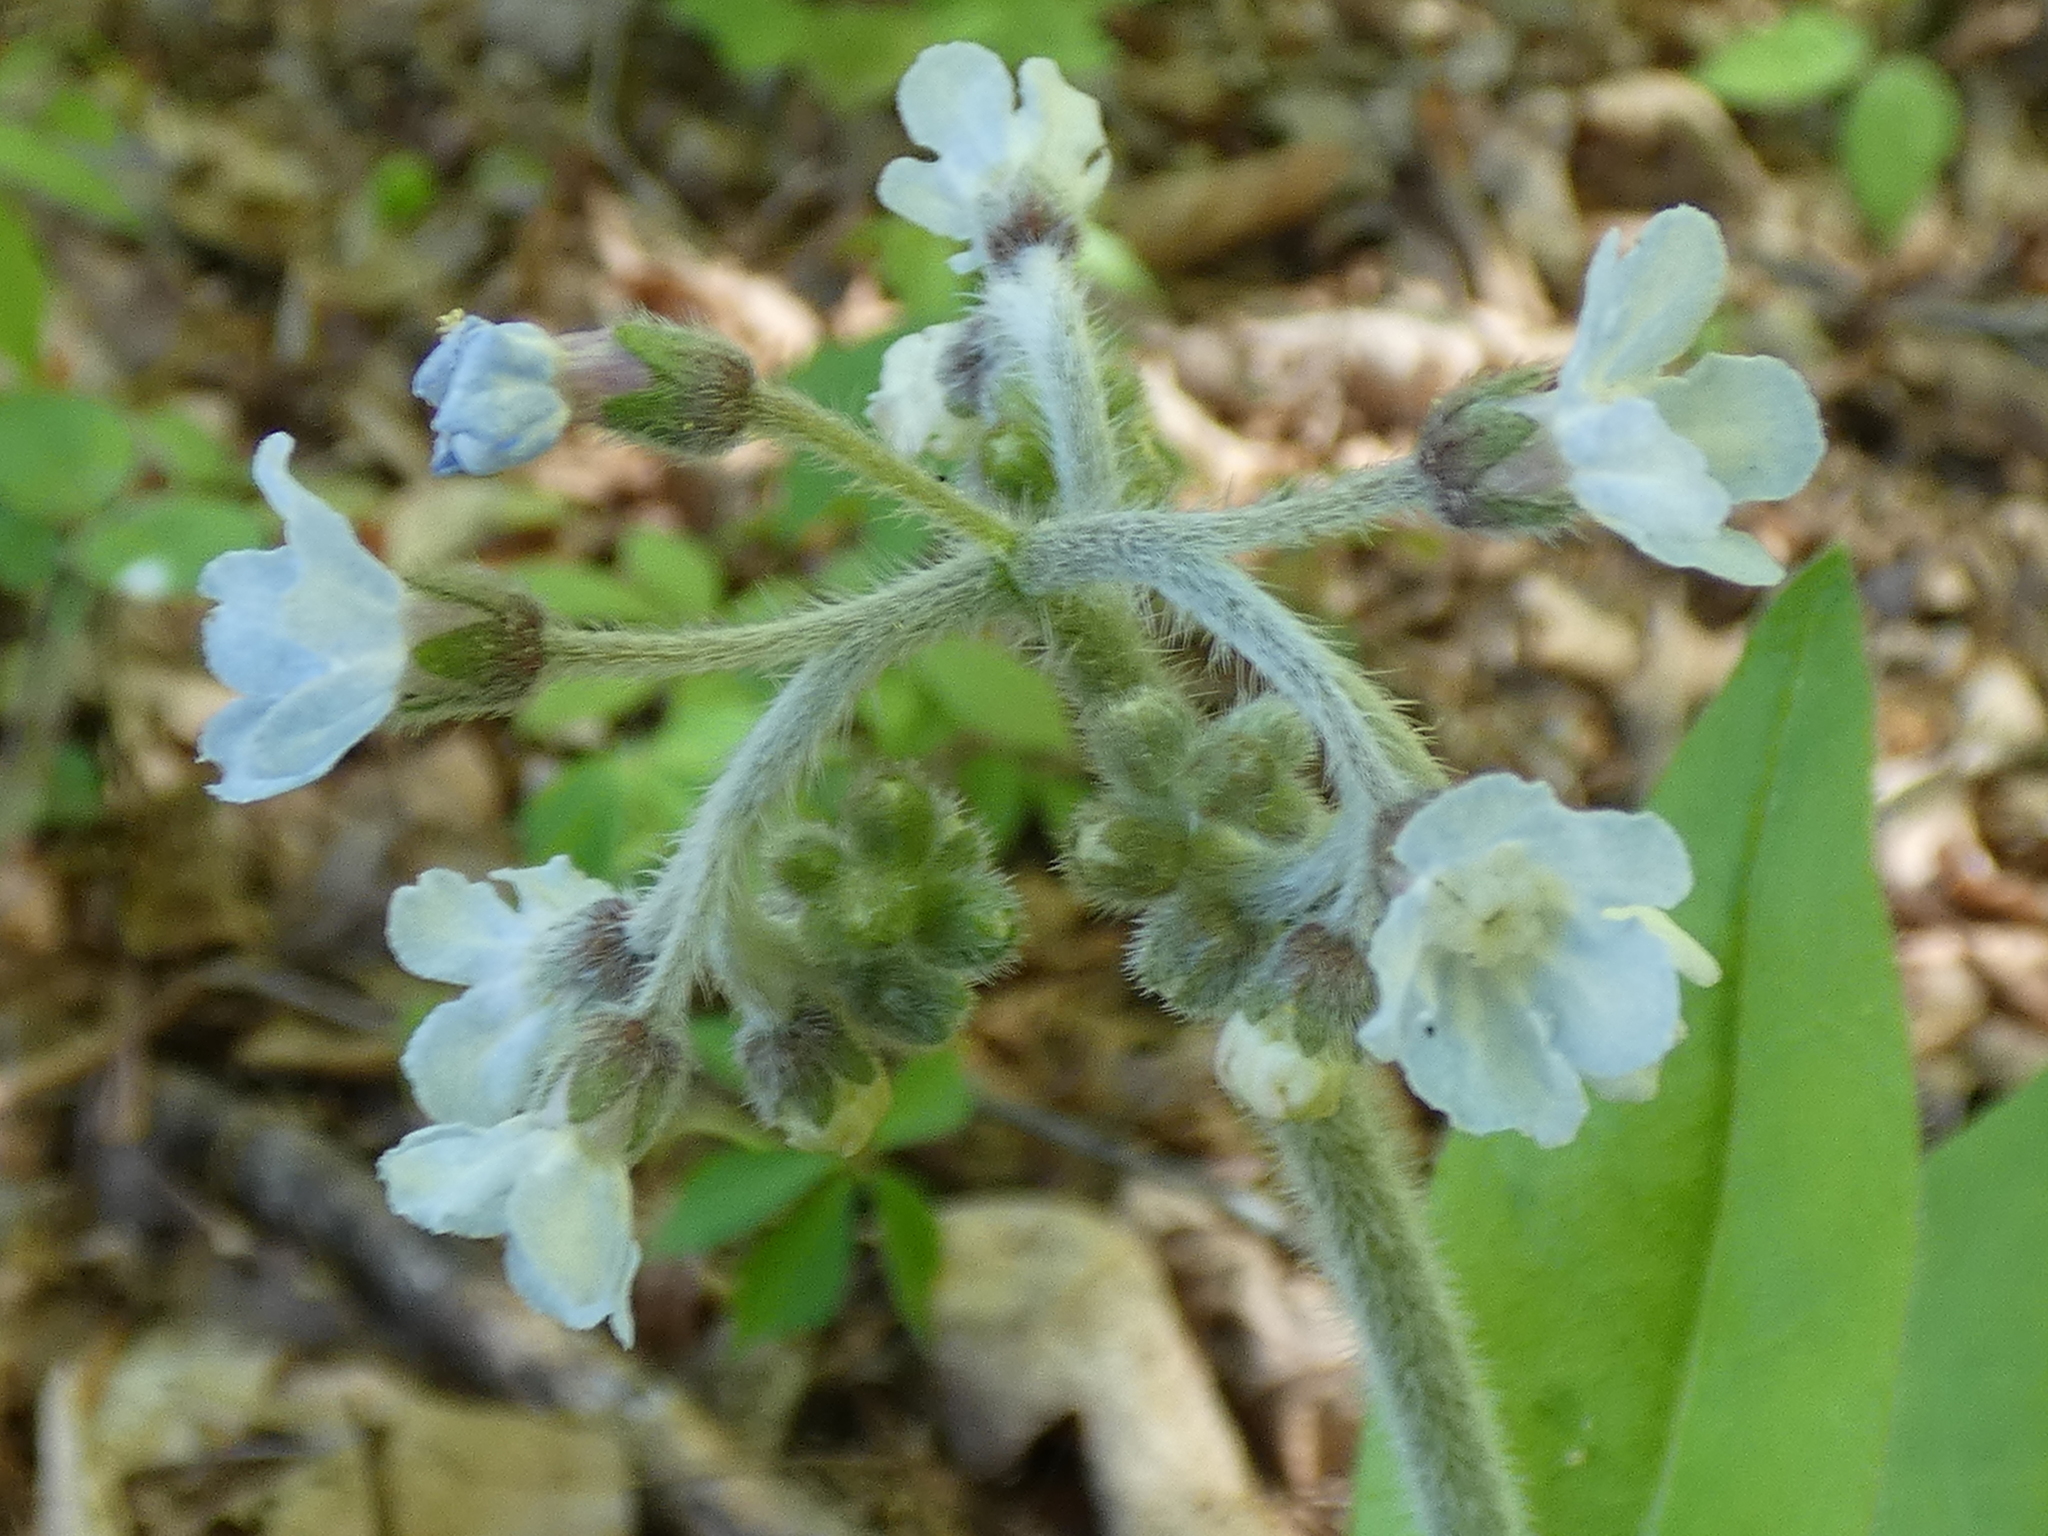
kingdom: Plantae
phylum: Tracheophyta
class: Magnoliopsida
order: Boraginales
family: Boraginaceae
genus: Andersonglossum
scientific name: Andersonglossum virginianum
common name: Wild comfrey
